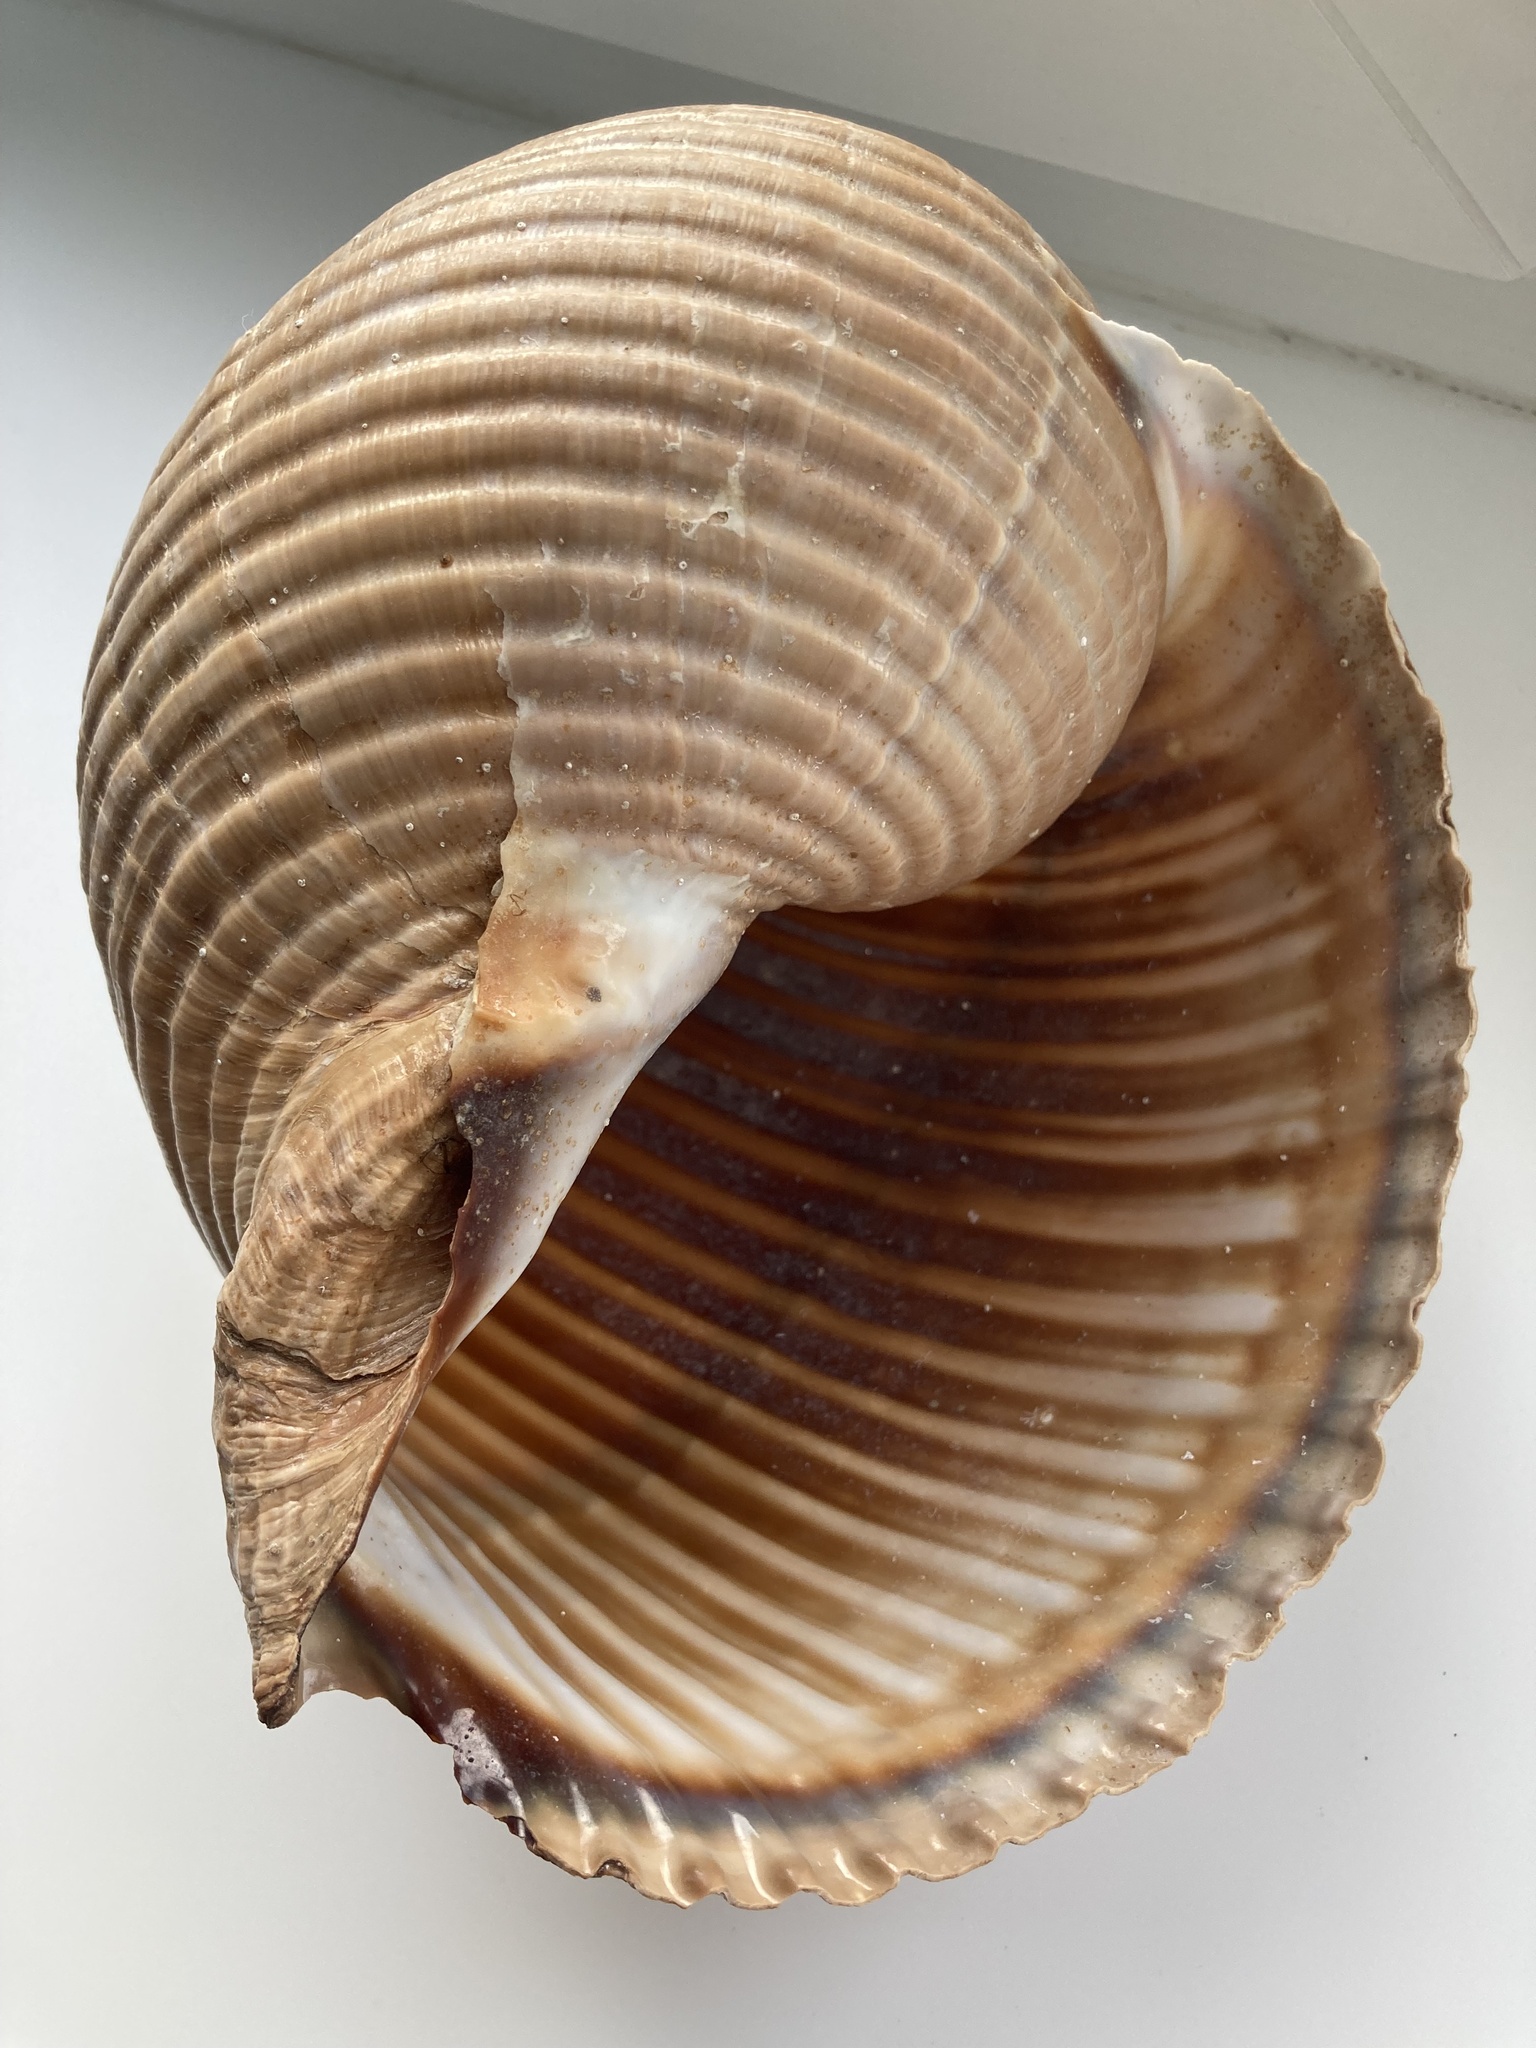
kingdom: Animalia
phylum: Mollusca
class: Gastropoda
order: Littorinimorpha
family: Tonnidae
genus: Tonna
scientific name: Tonna galea
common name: Giant tun
